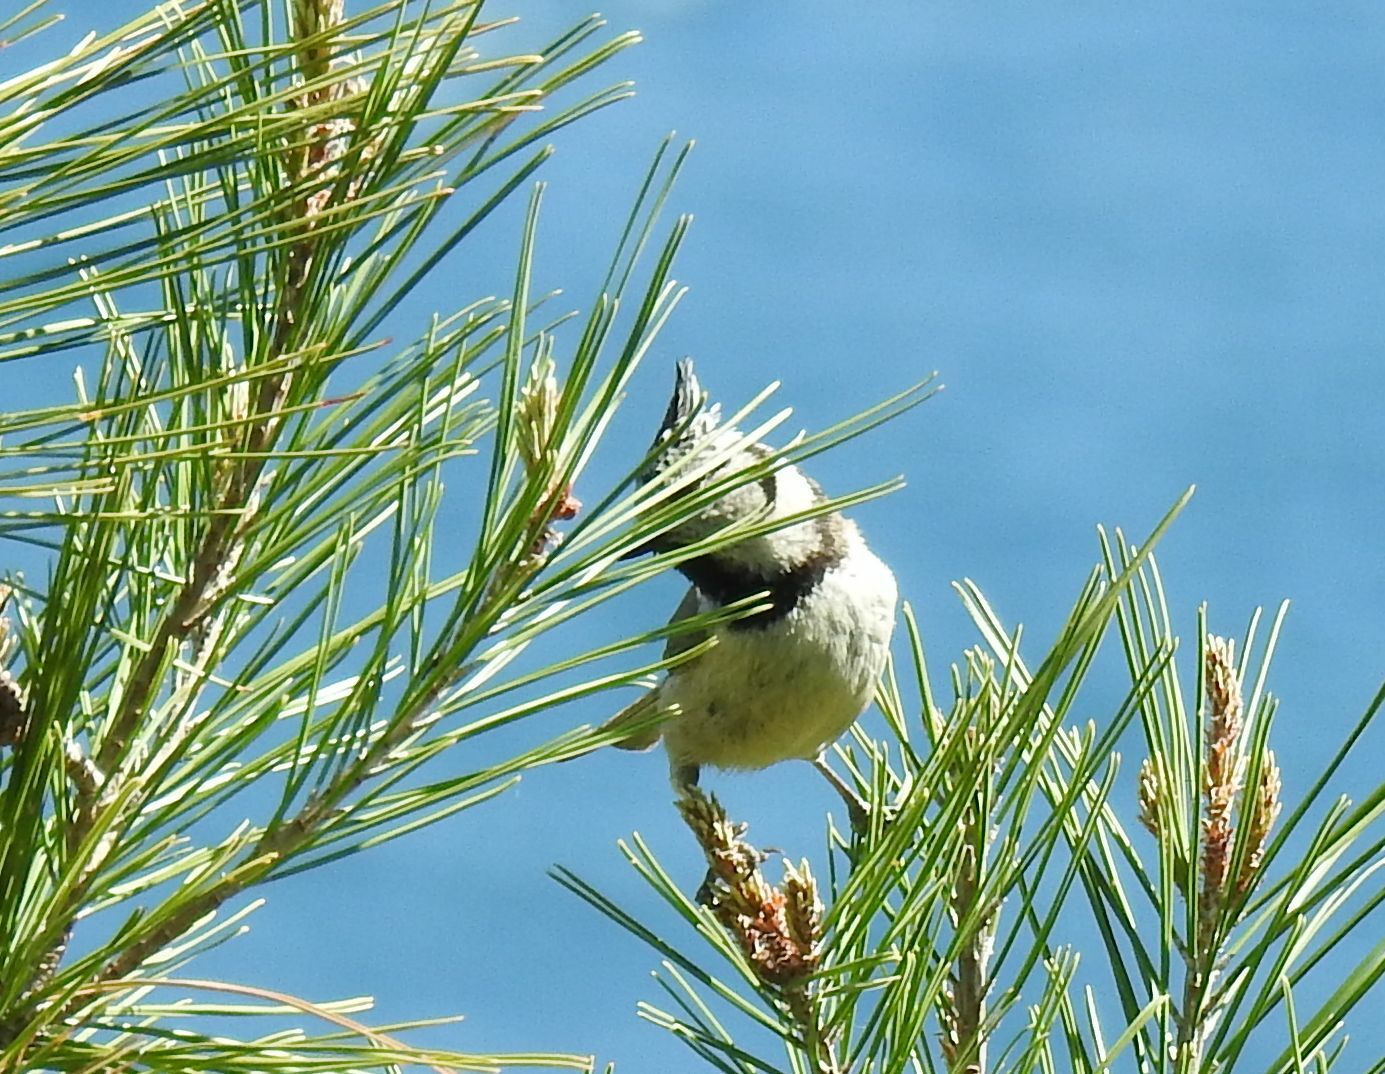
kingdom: Animalia
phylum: Chordata
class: Aves
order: Passeriformes
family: Paridae
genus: Lophophanes
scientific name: Lophophanes cristatus
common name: European crested tit
